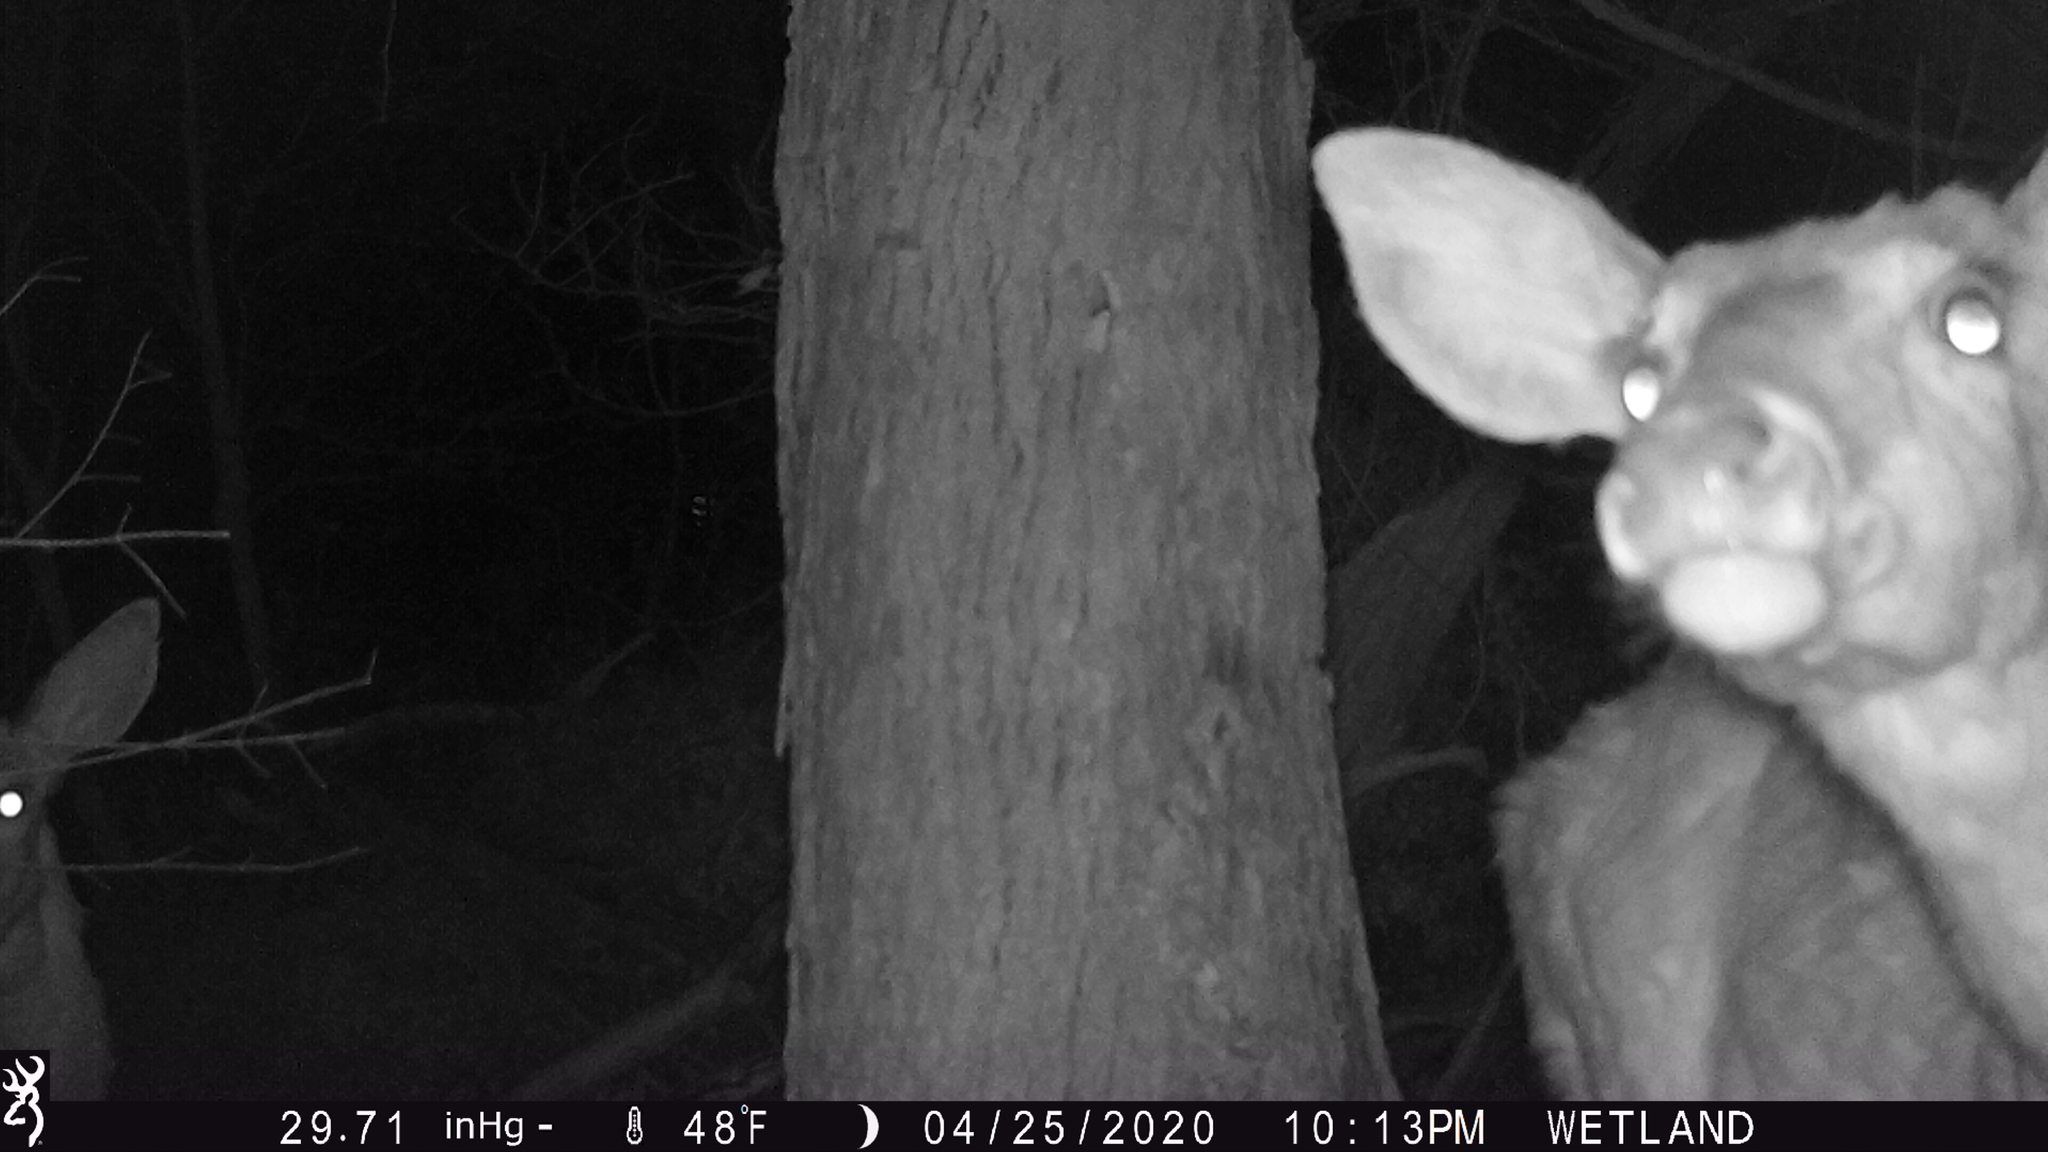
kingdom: Animalia
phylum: Chordata
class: Mammalia
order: Artiodactyla
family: Cervidae
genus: Odocoileus
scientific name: Odocoileus virginianus
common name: White-tailed deer
